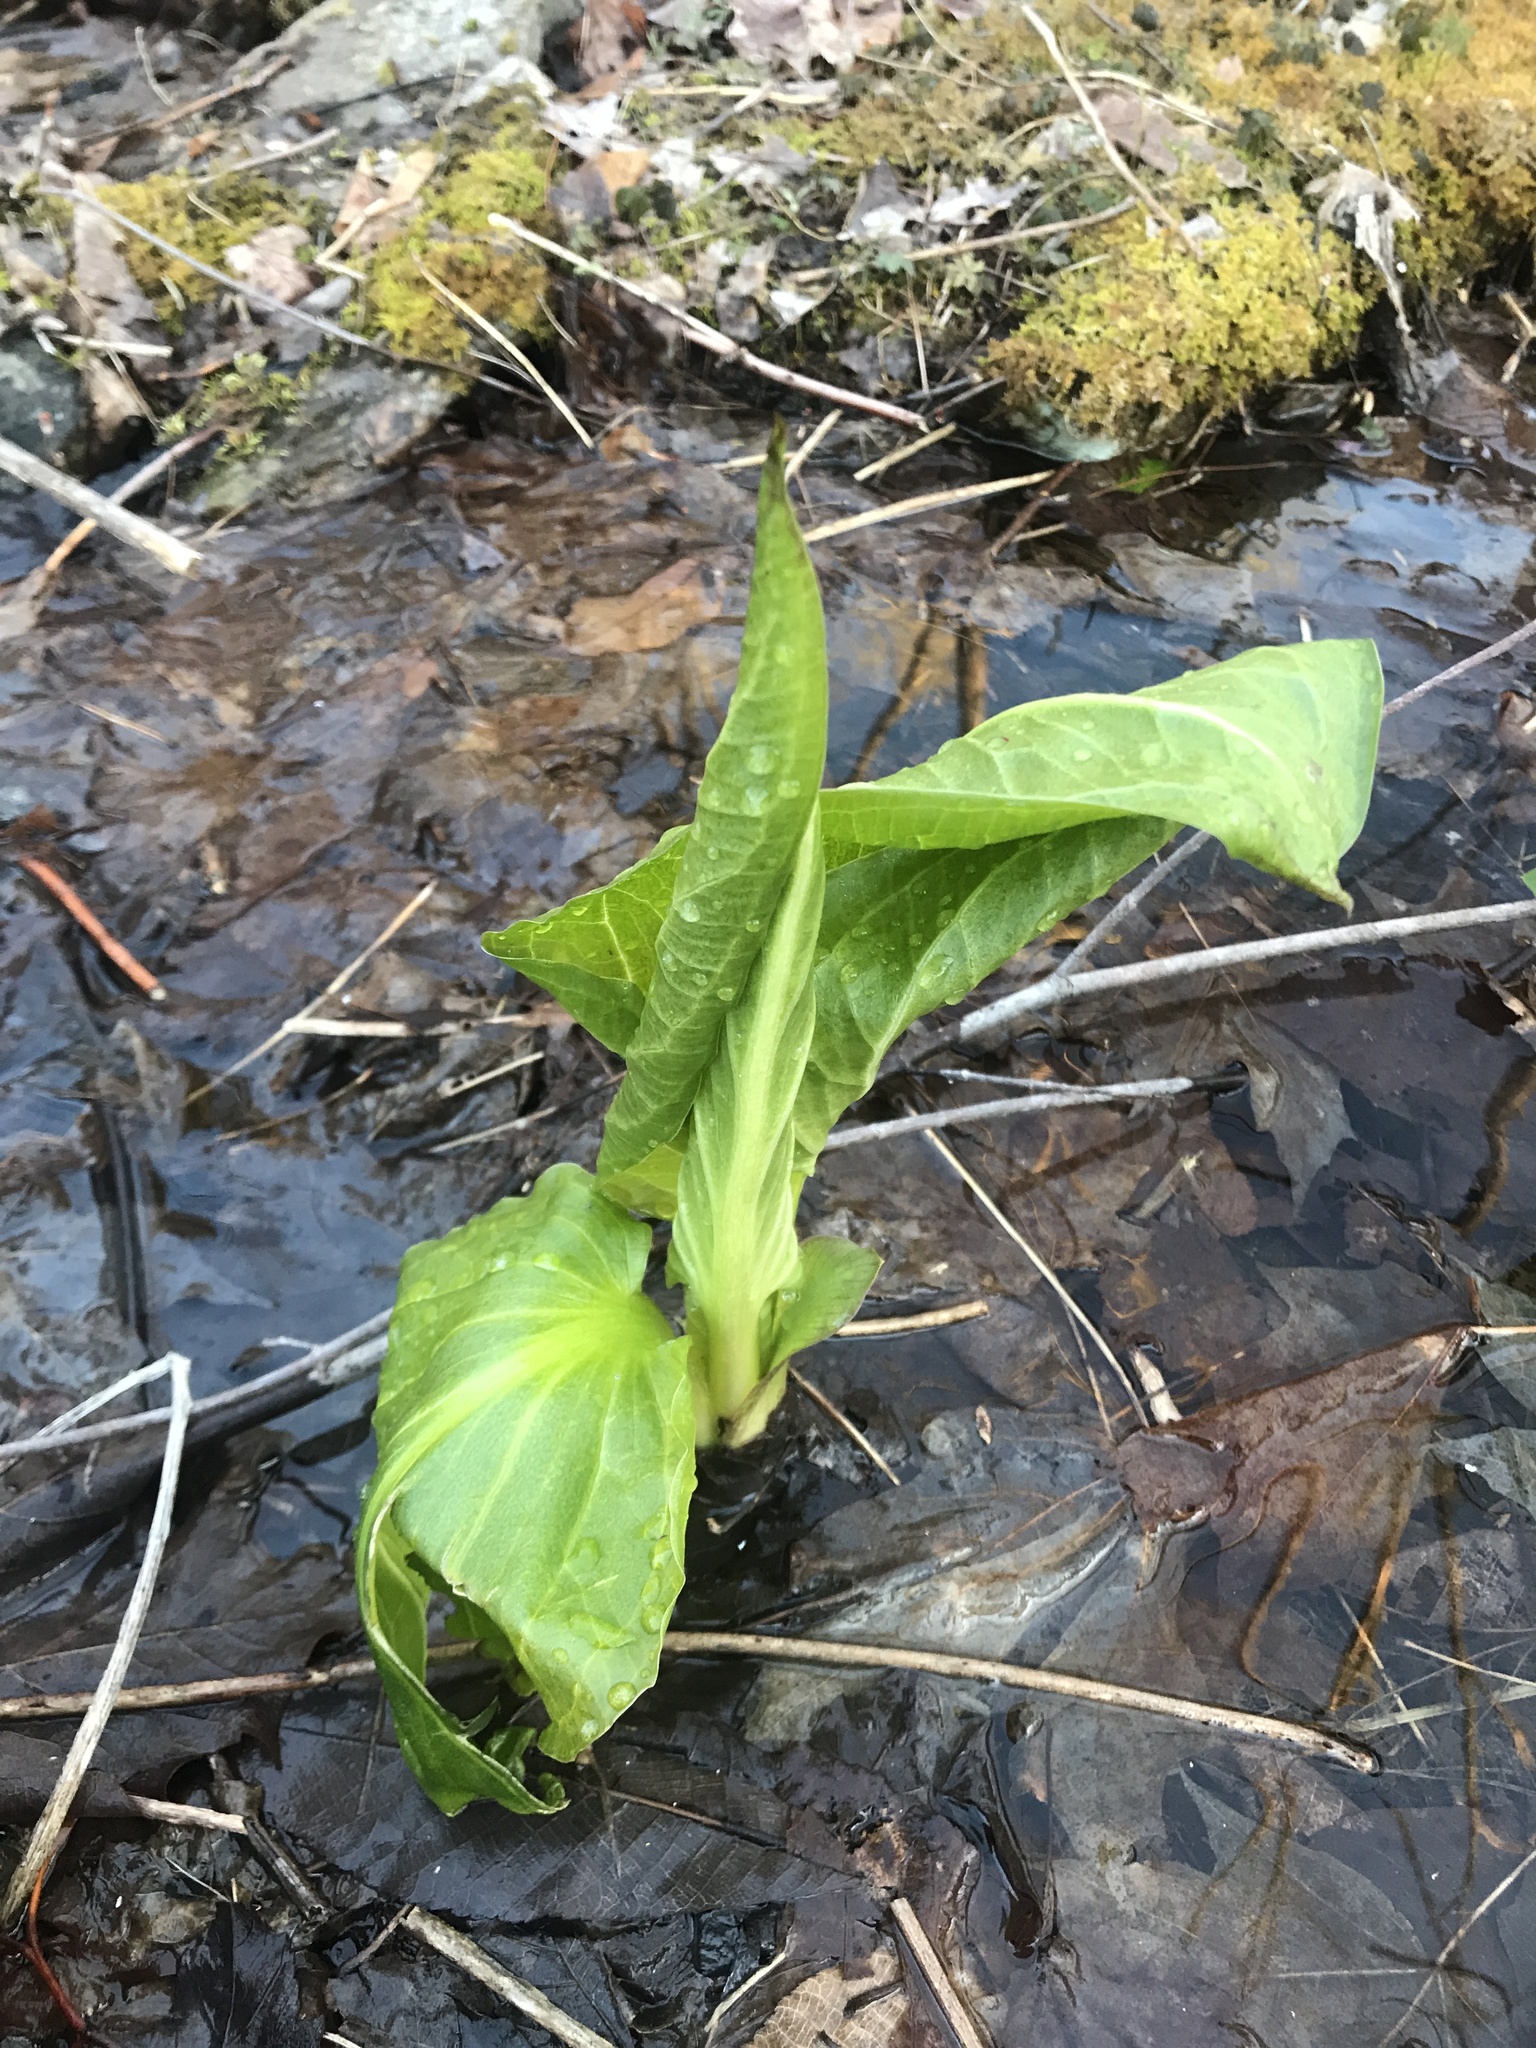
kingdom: Plantae
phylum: Tracheophyta
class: Liliopsida
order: Alismatales
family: Araceae
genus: Symplocarpus
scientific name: Symplocarpus foetidus
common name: Eastern skunk cabbage
